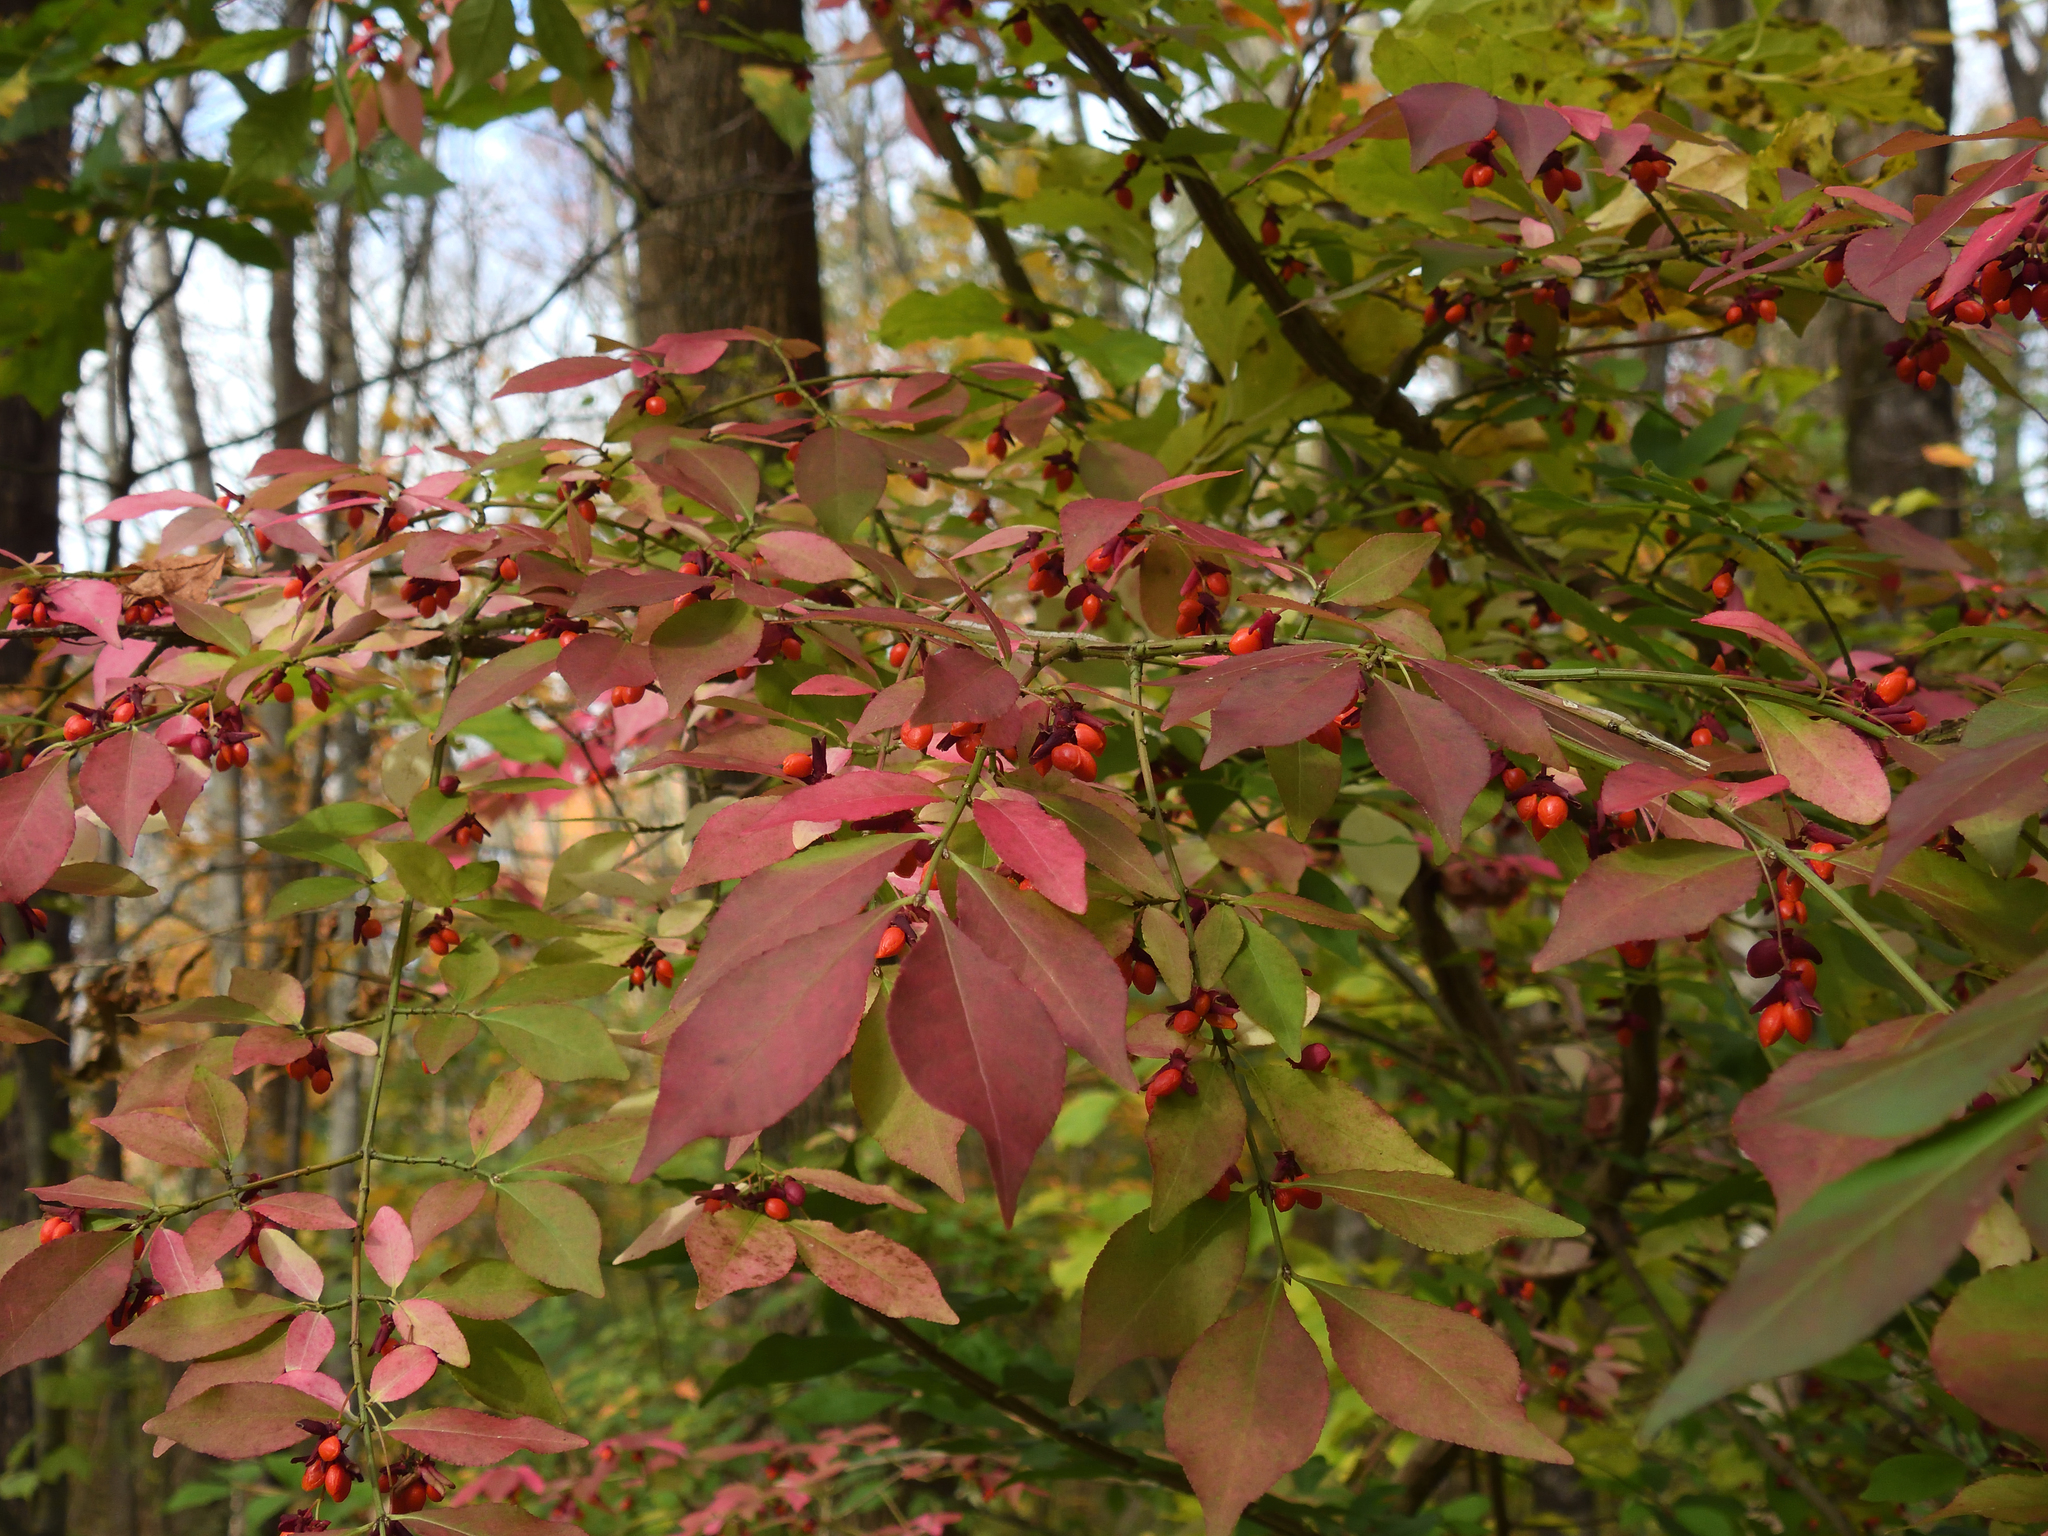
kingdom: Plantae
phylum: Tracheophyta
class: Magnoliopsida
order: Celastrales
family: Celastraceae
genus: Euonymus
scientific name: Euonymus alatus
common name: Winged euonymus
